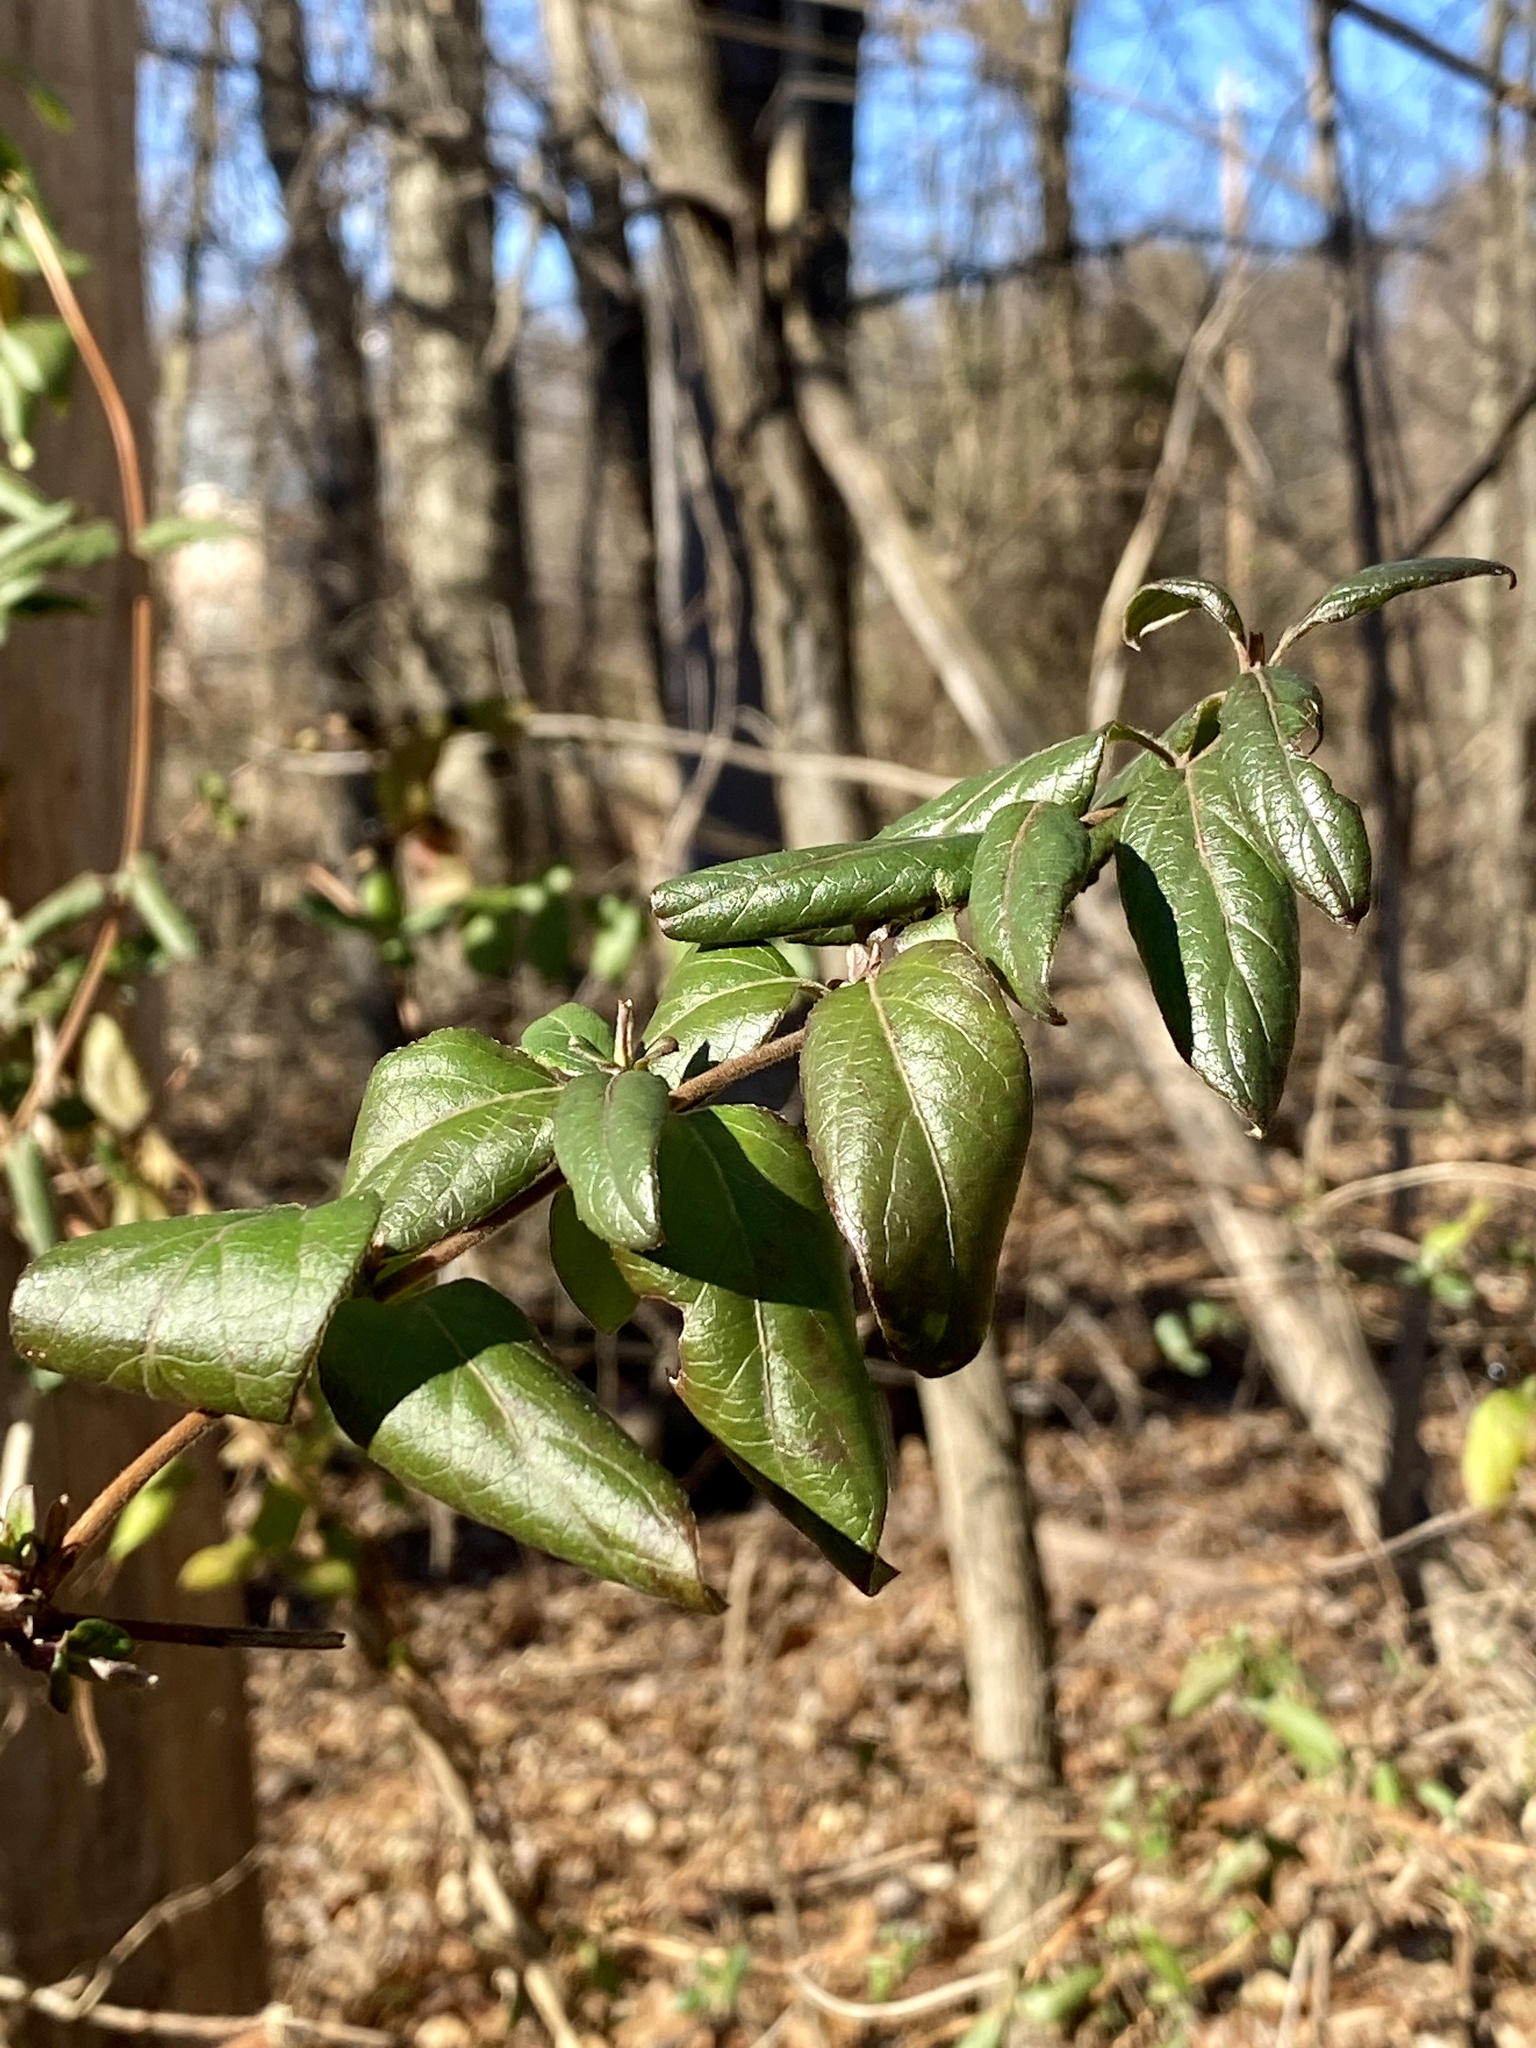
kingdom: Plantae
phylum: Tracheophyta
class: Magnoliopsida
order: Dipsacales
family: Caprifoliaceae
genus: Lonicera
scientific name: Lonicera japonica
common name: Japanese honeysuckle
